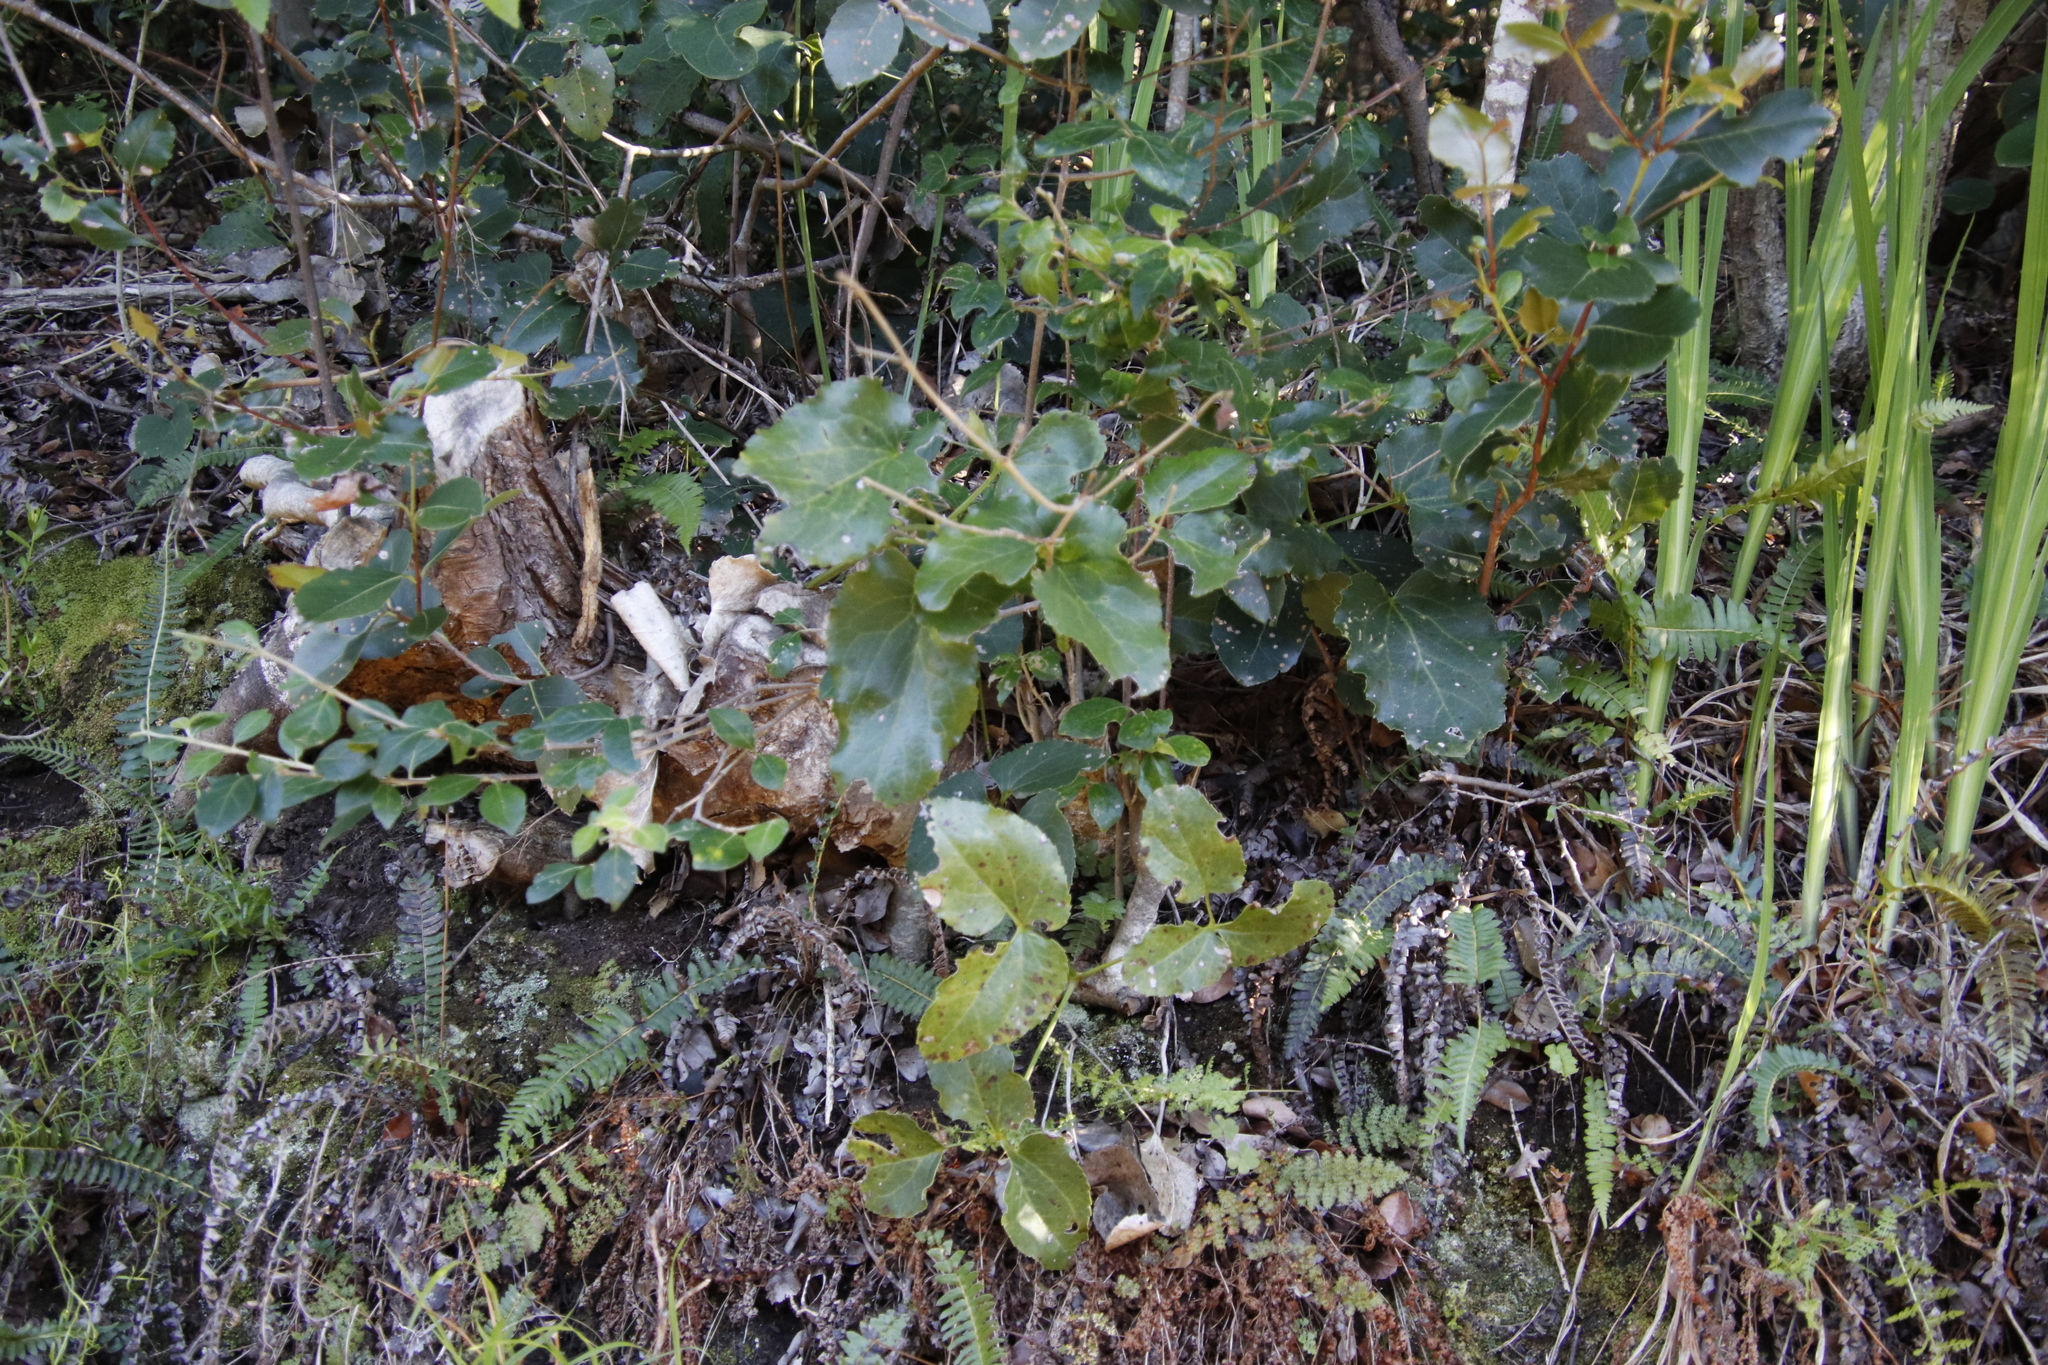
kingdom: Plantae
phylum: Tracheophyta
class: Magnoliopsida
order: Ranunculales
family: Ranunculaceae
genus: Knowltonia
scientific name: Knowltonia vesicatoria
